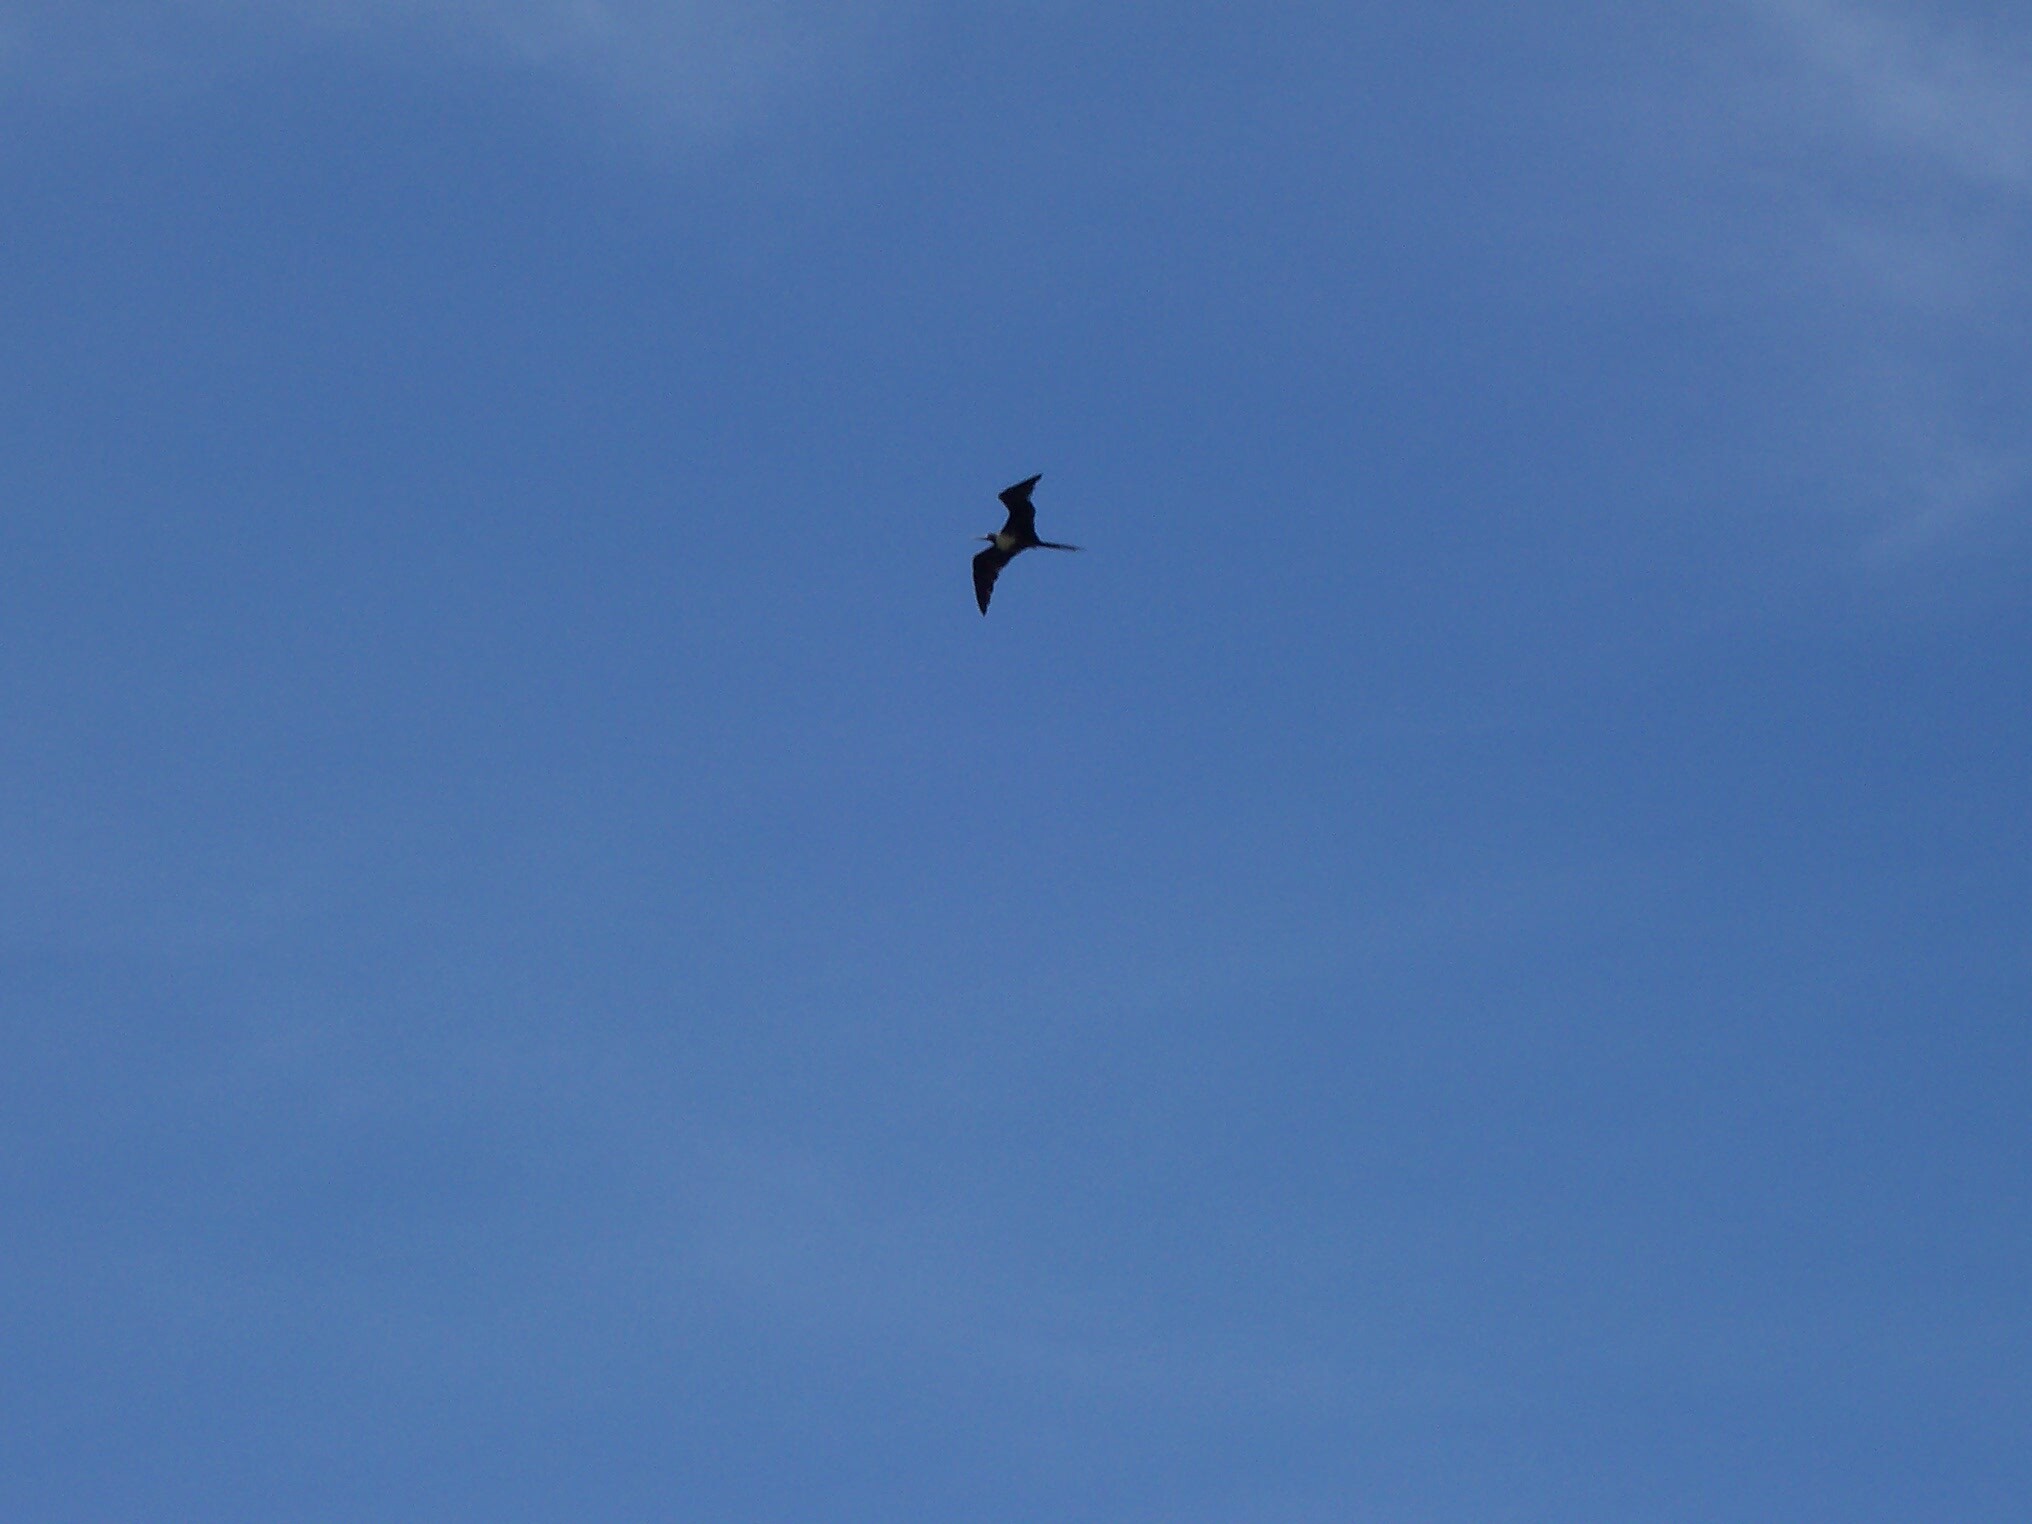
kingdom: Animalia
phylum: Chordata
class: Aves
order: Suliformes
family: Fregatidae
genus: Fregata
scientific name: Fregata magnificens
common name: Magnificent frigatebird
